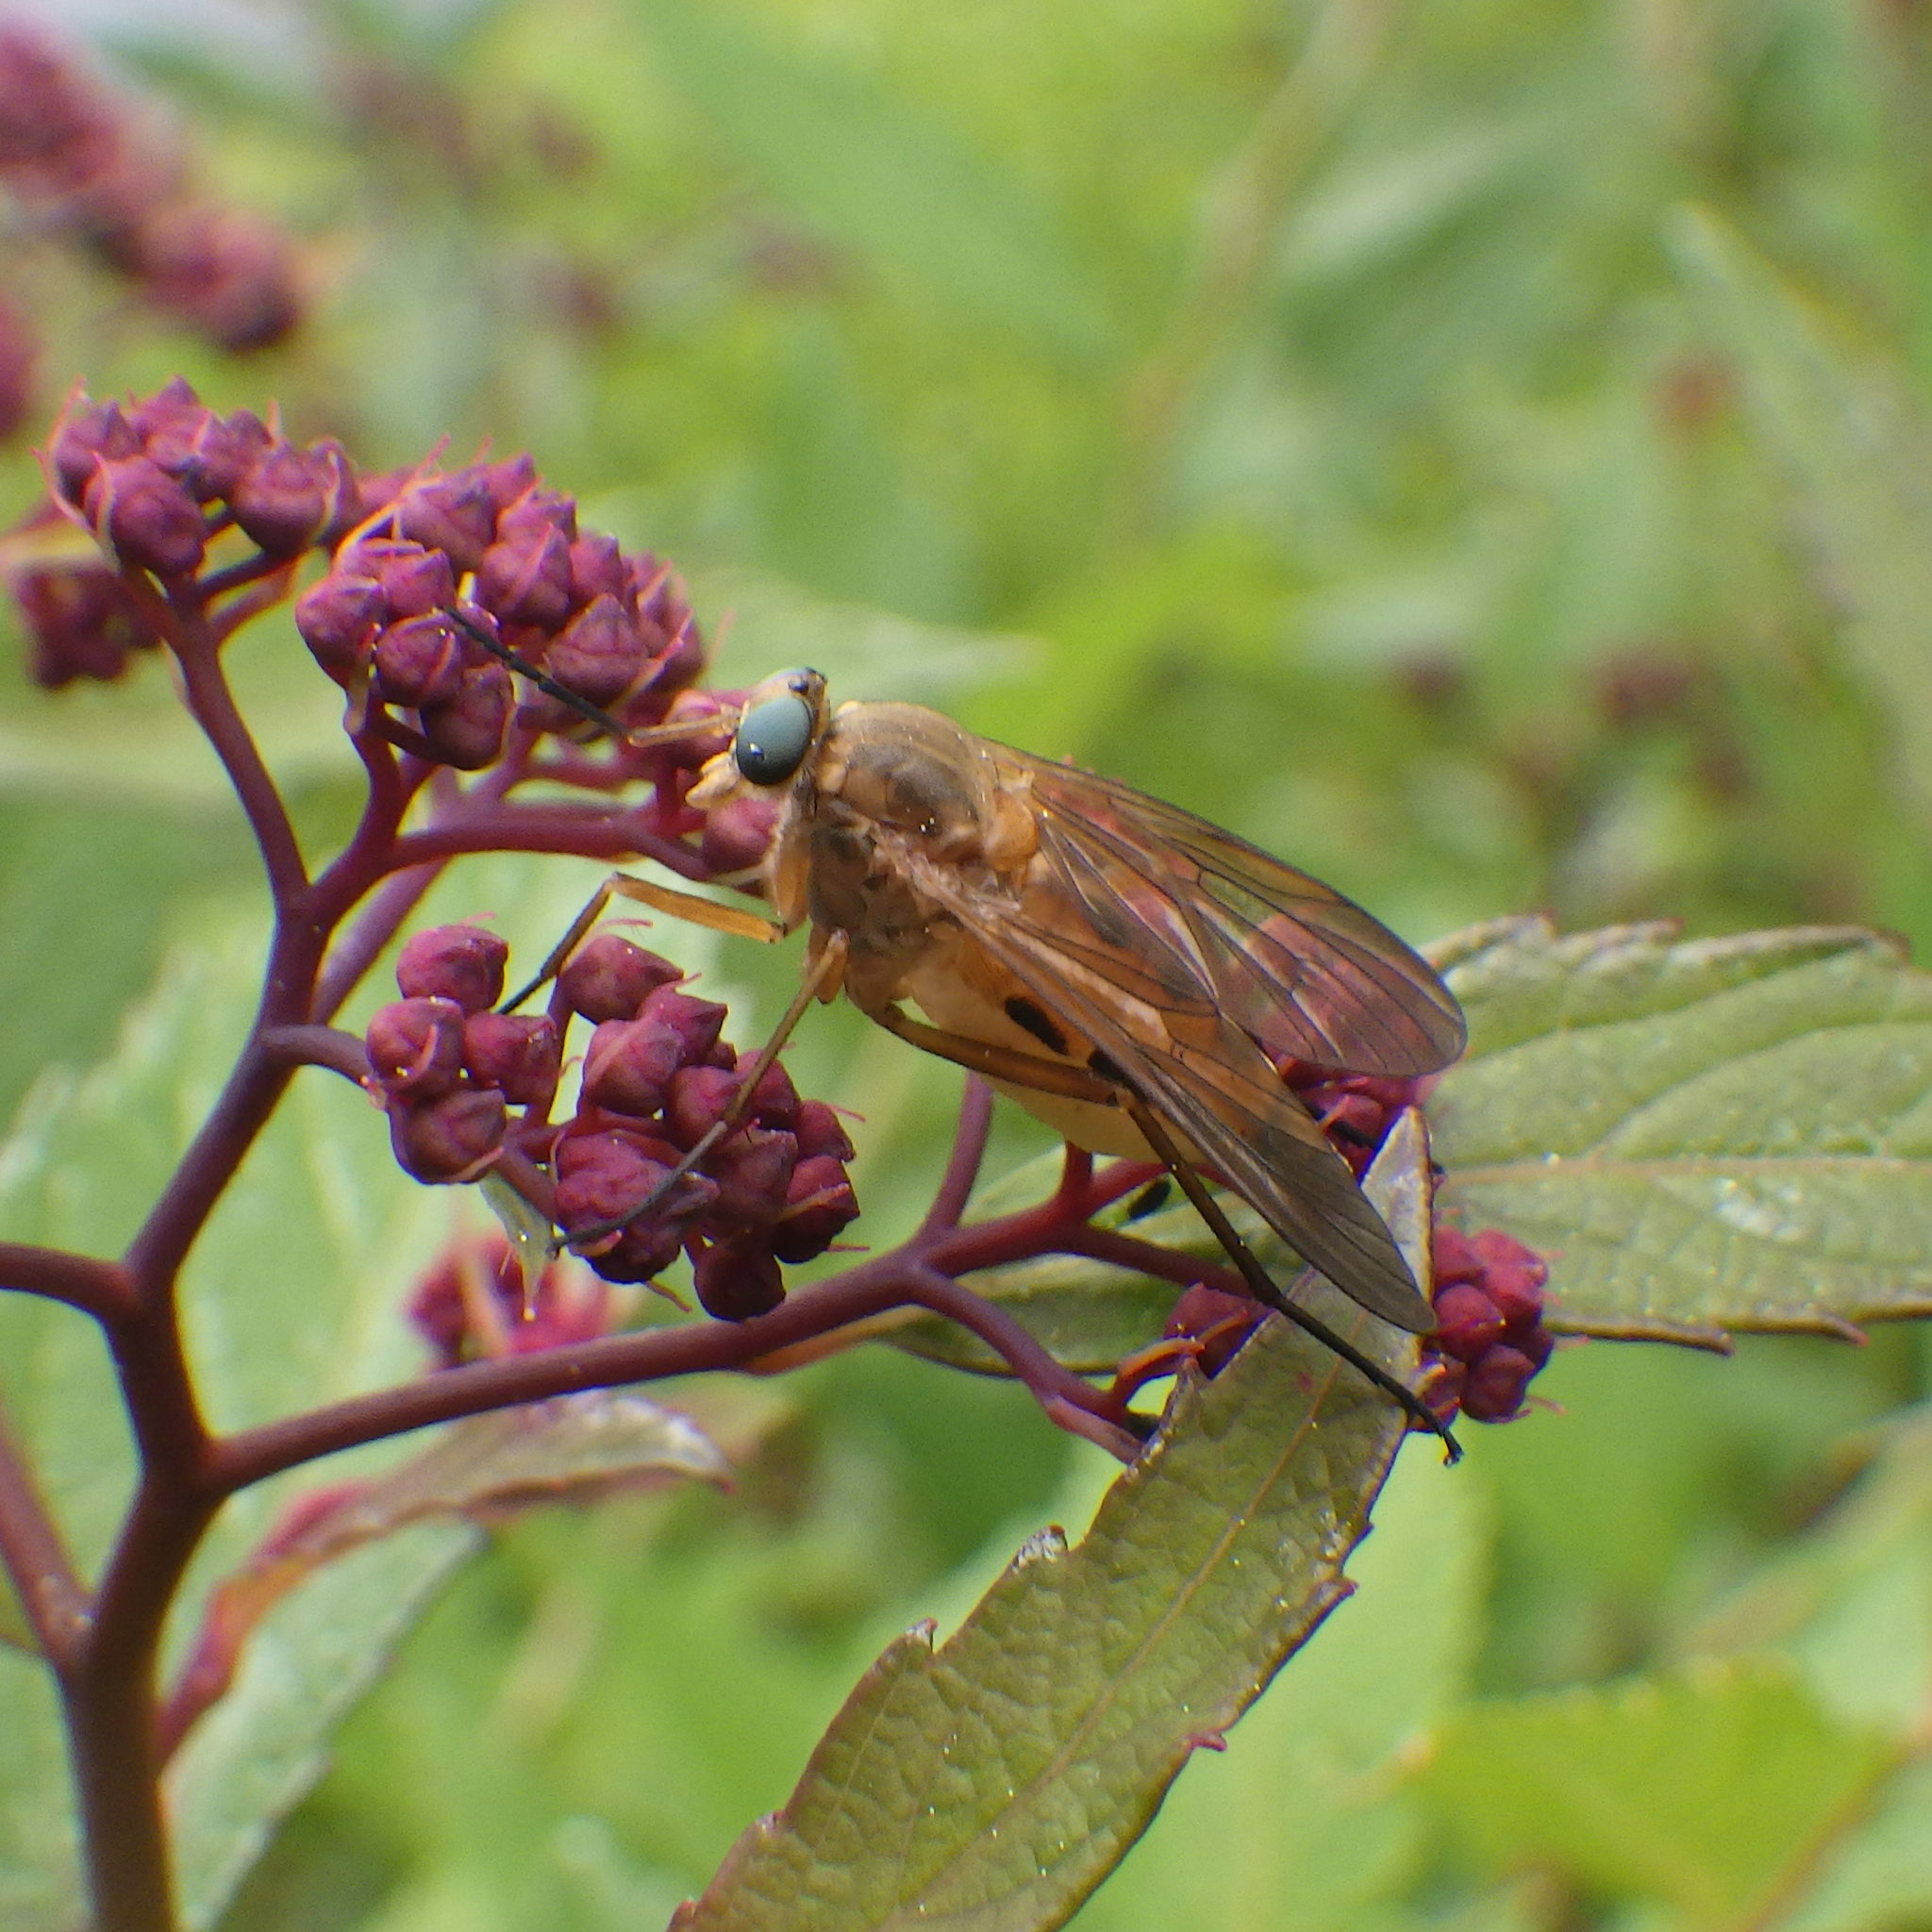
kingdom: Animalia
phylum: Arthropoda
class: Insecta
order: Diptera
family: Rhagionidae
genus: Rhagio
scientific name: Rhagio tringaria
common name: Marsh snipefly
